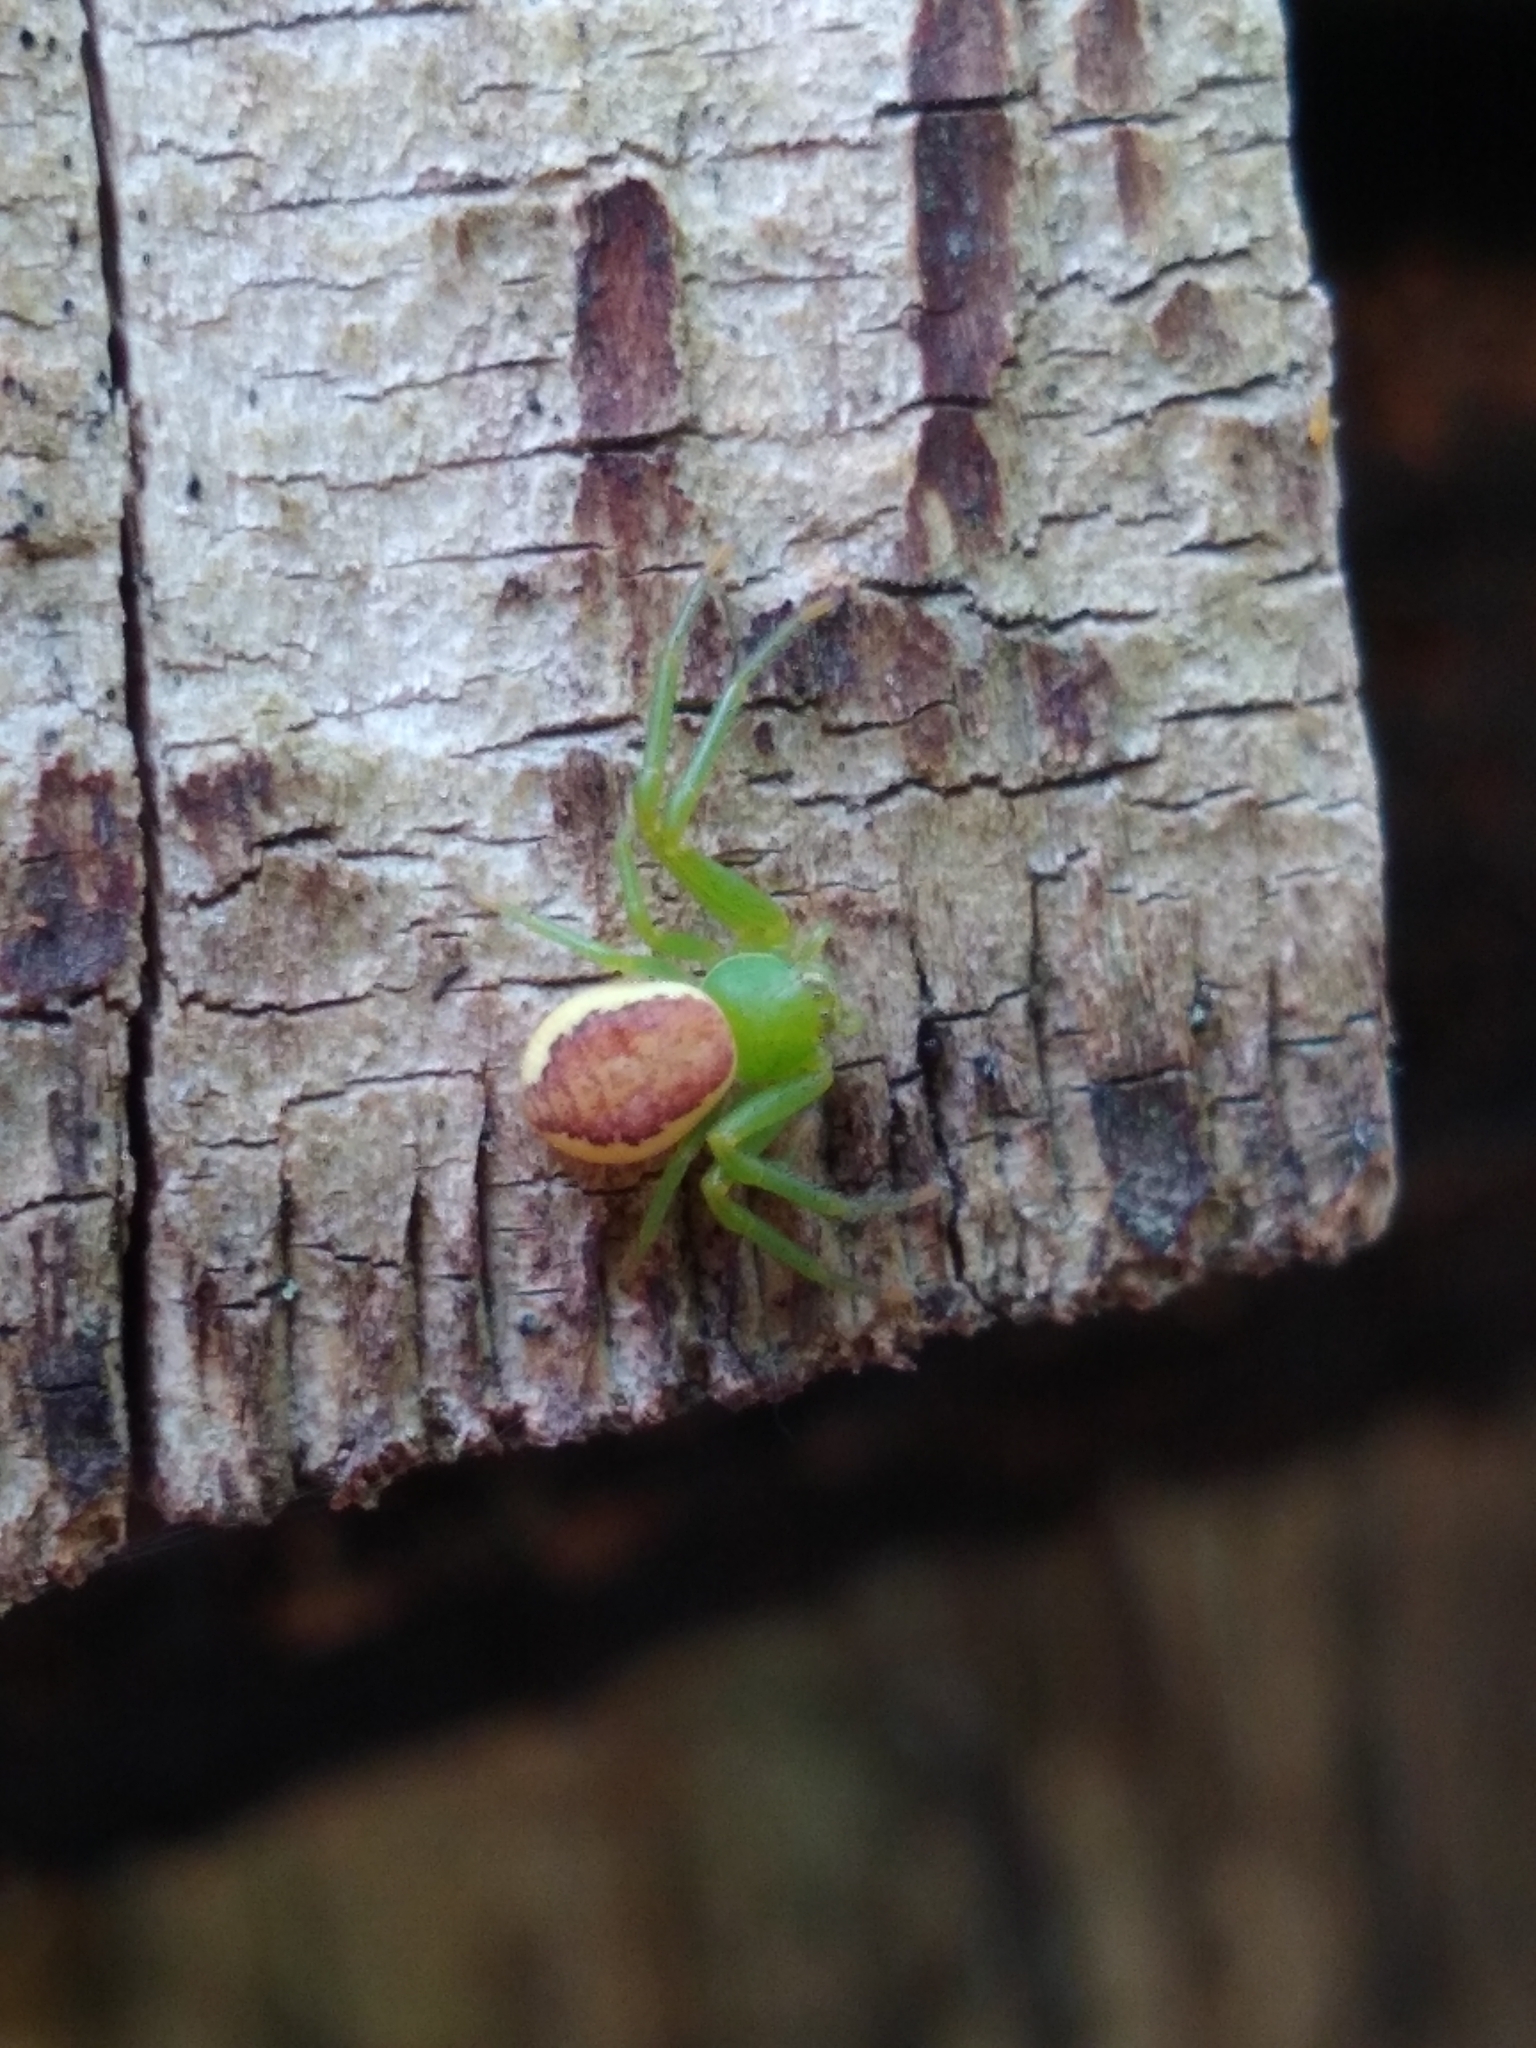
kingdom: Animalia
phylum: Arthropoda
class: Arachnida
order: Araneae
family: Thomisidae
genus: Diaea
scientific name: Diaea dorsata
